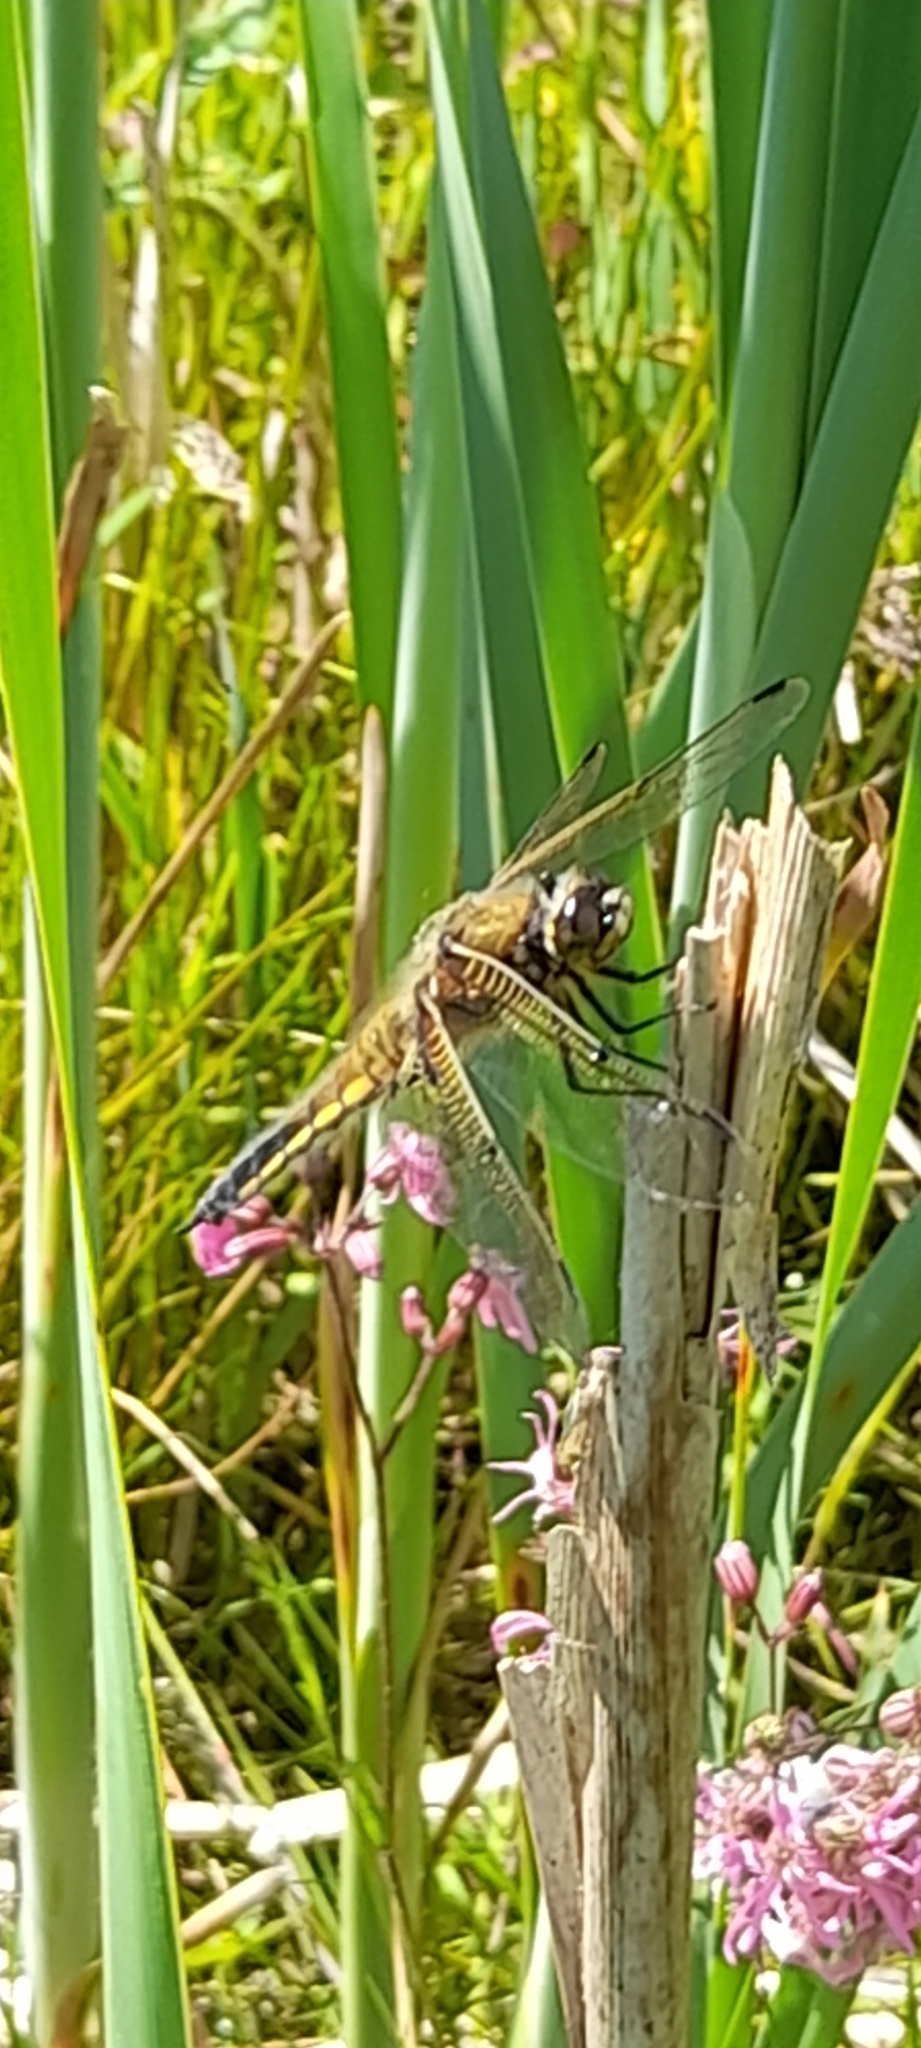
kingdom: Animalia
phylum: Arthropoda
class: Insecta
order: Odonata
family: Libellulidae
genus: Libellula
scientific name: Libellula quadrimaculata
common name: Four-spotted chaser
